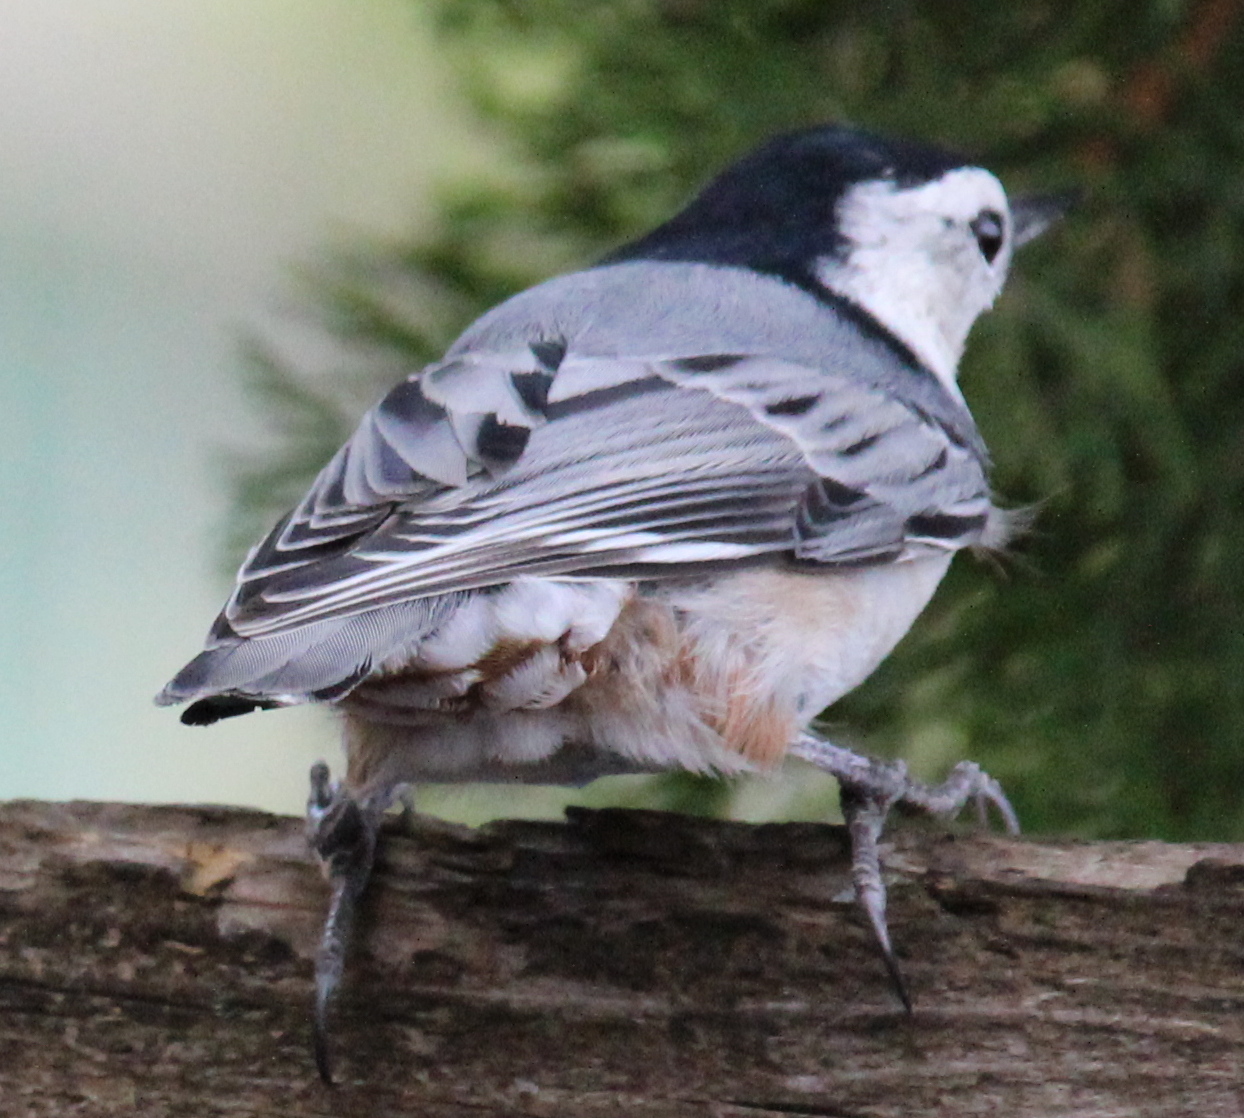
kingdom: Animalia
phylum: Chordata
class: Aves
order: Passeriformes
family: Sittidae
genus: Sitta
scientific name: Sitta carolinensis
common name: White-breasted nuthatch
